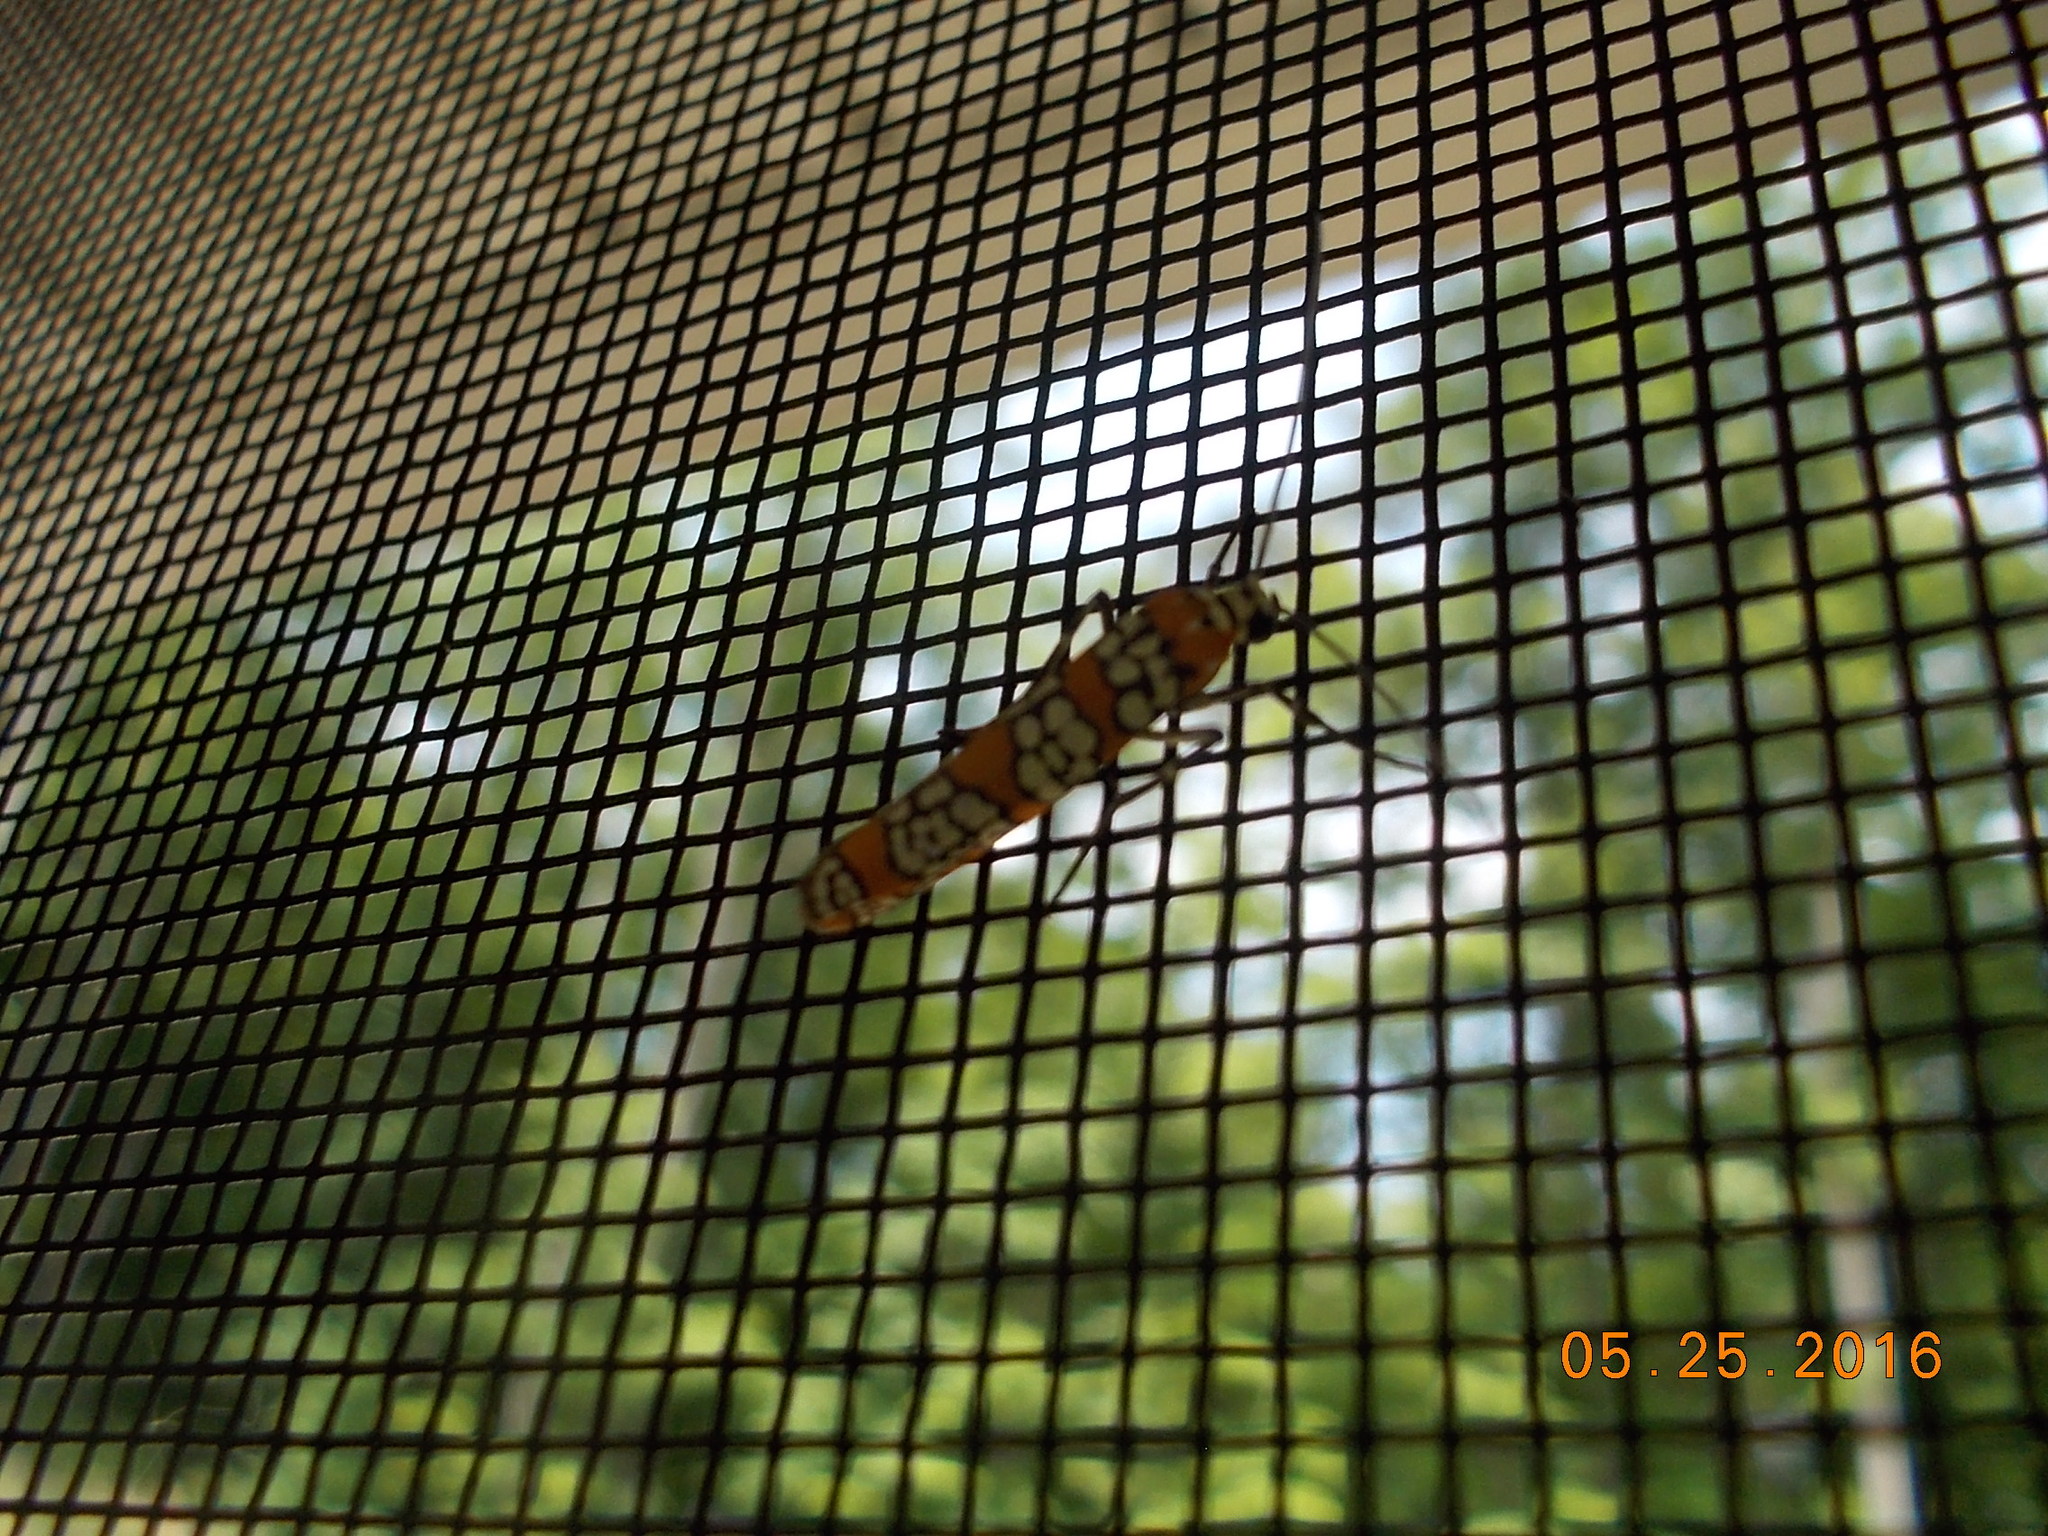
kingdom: Animalia
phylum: Arthropoda
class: Insecta
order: Lepidoptera
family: Attevidae
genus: Atteva
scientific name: Atteva punctella
